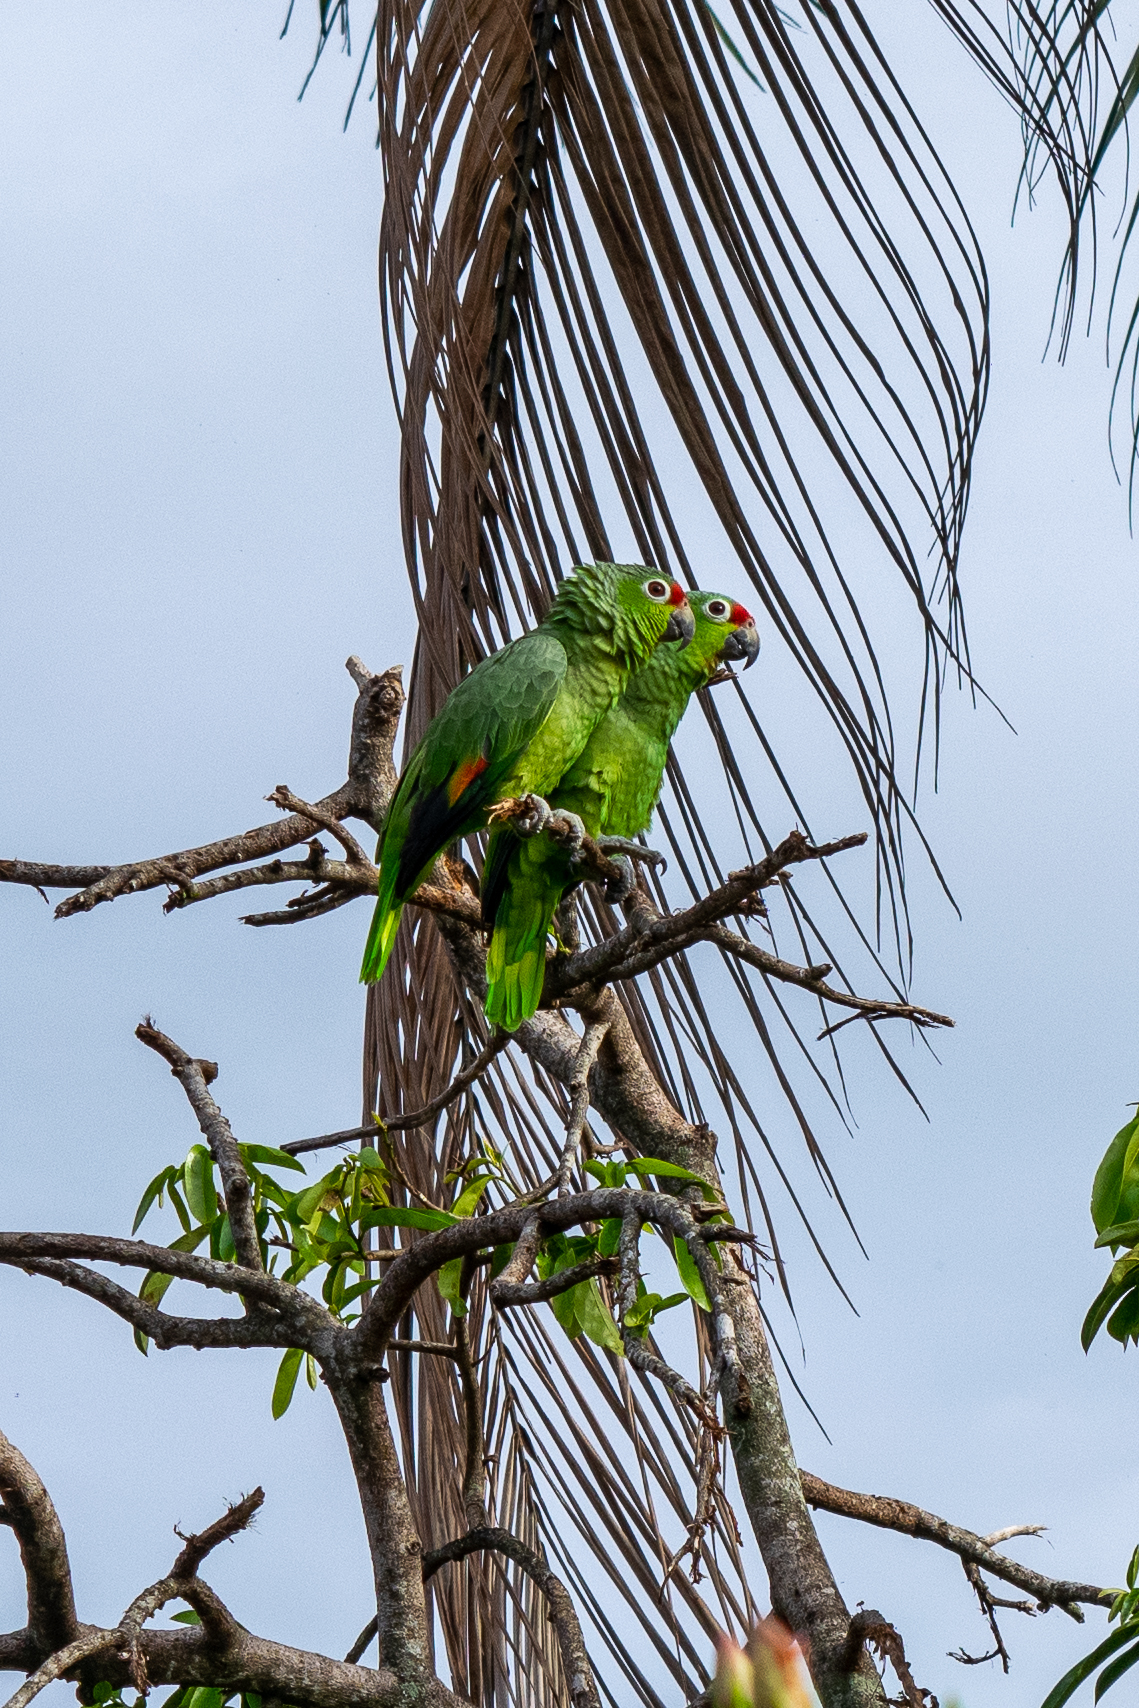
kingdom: Animalia
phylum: Chordata
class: Aves
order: Psittaciformes
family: Psittacidae
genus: Amazona
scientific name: Amazona autumnalis
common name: Red-lored amazon
